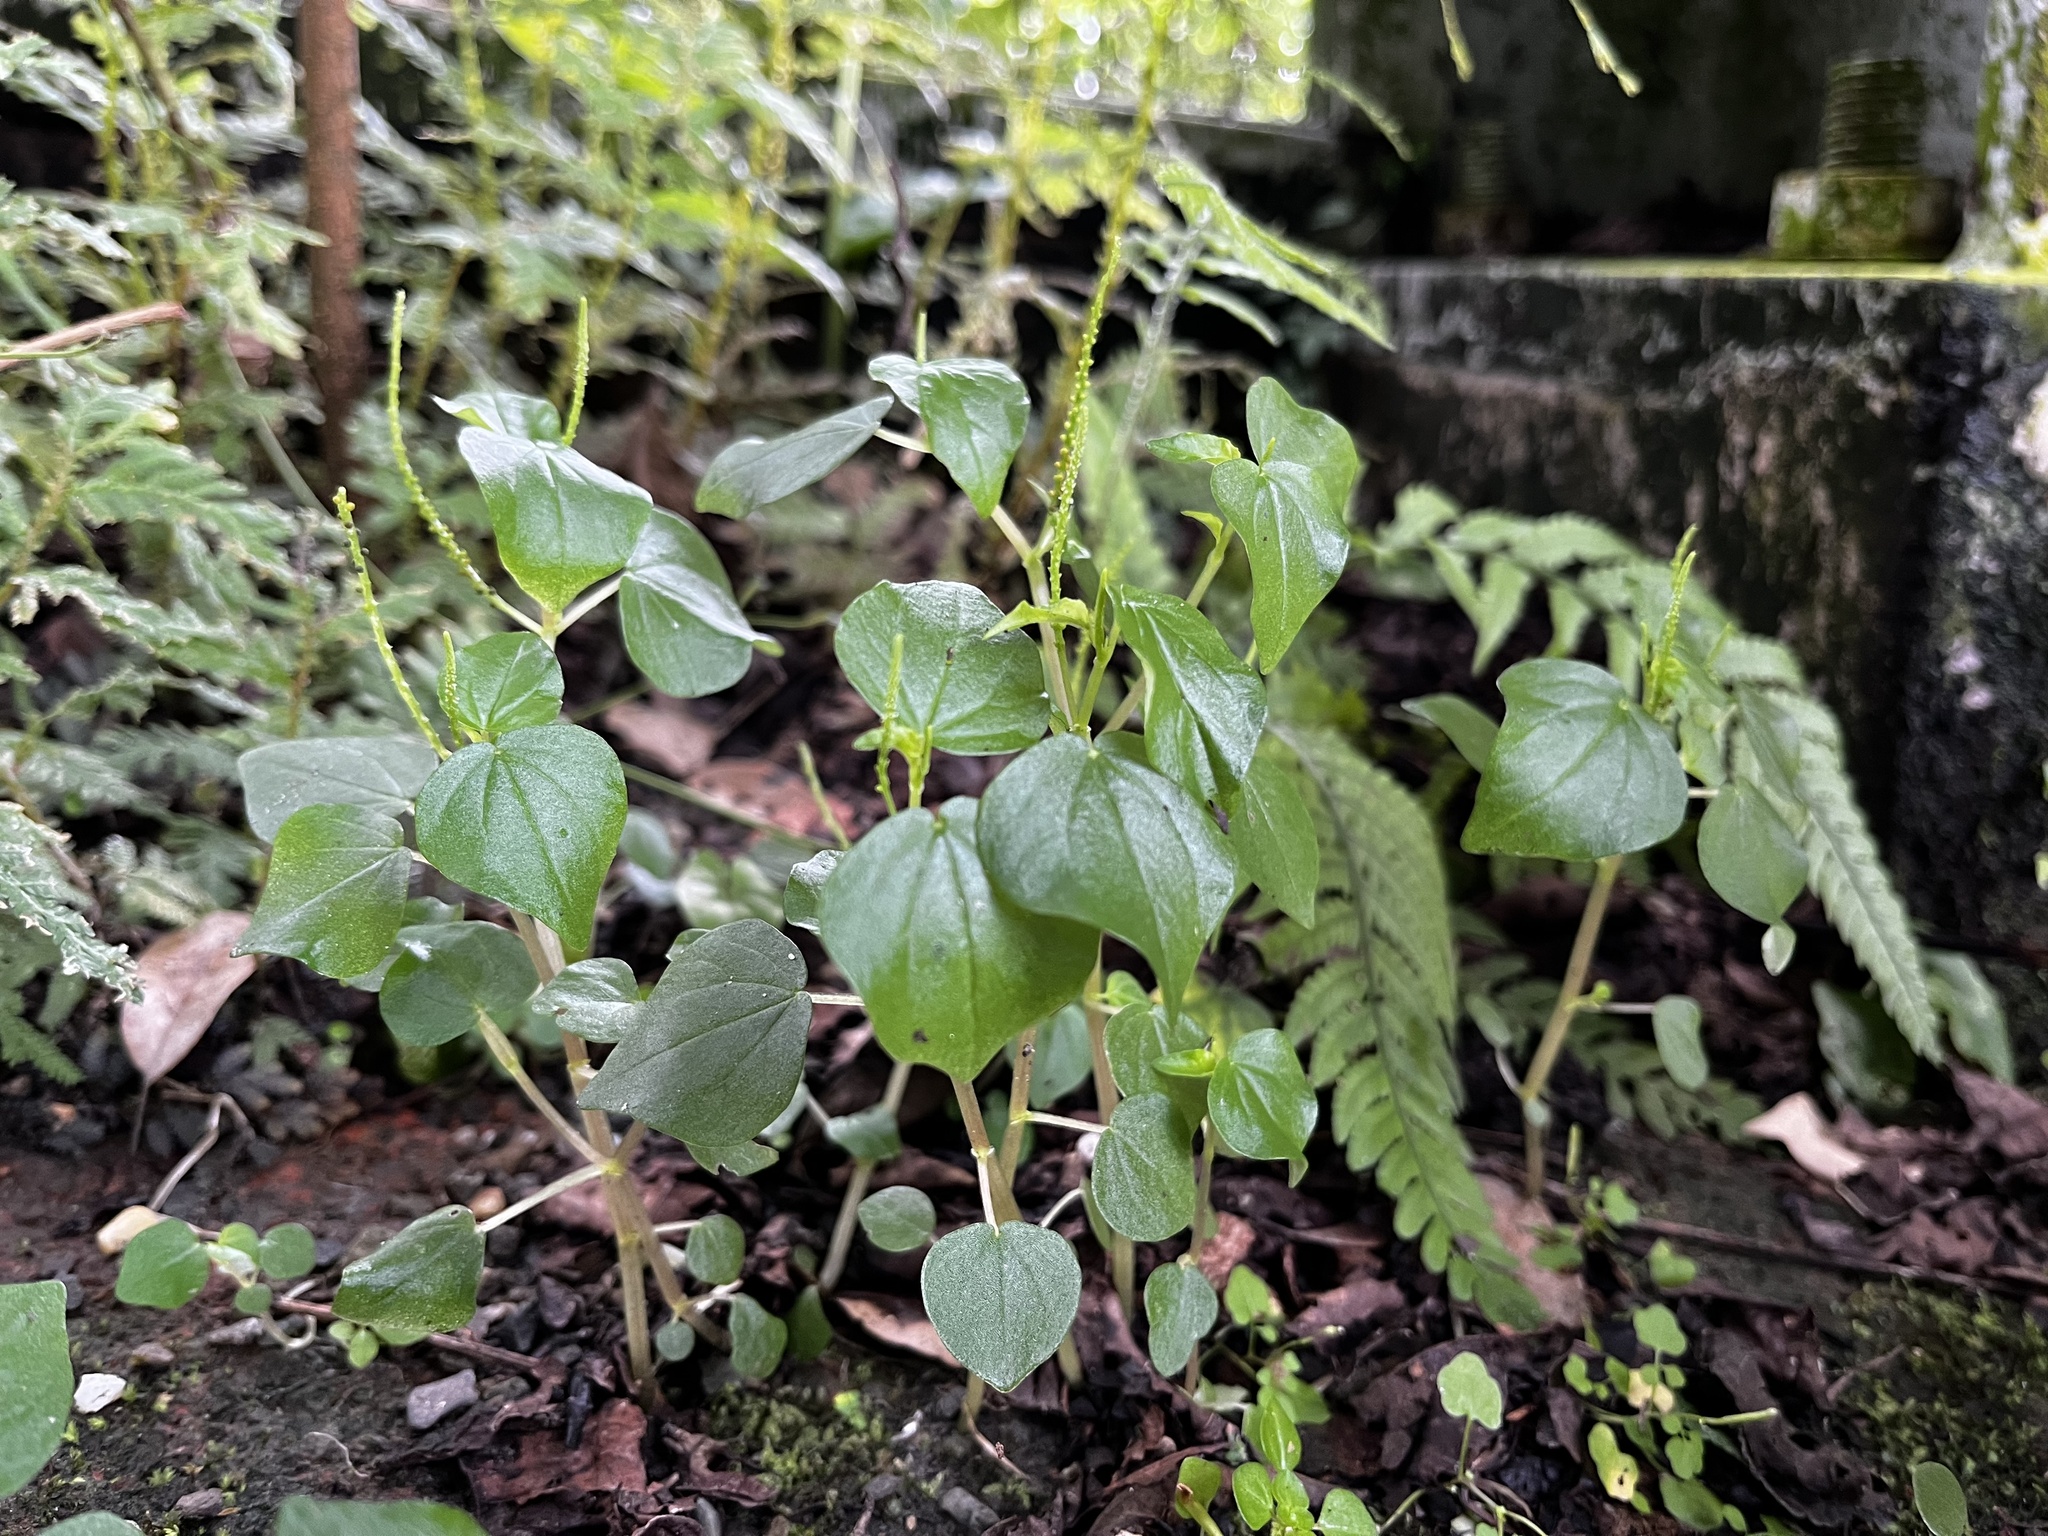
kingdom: Plantae
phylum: Tracheophyta
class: Magnoliopsida
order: Piperales
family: Piperaceae
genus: Peperomia
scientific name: Peperomia pellucida
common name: Man to man
